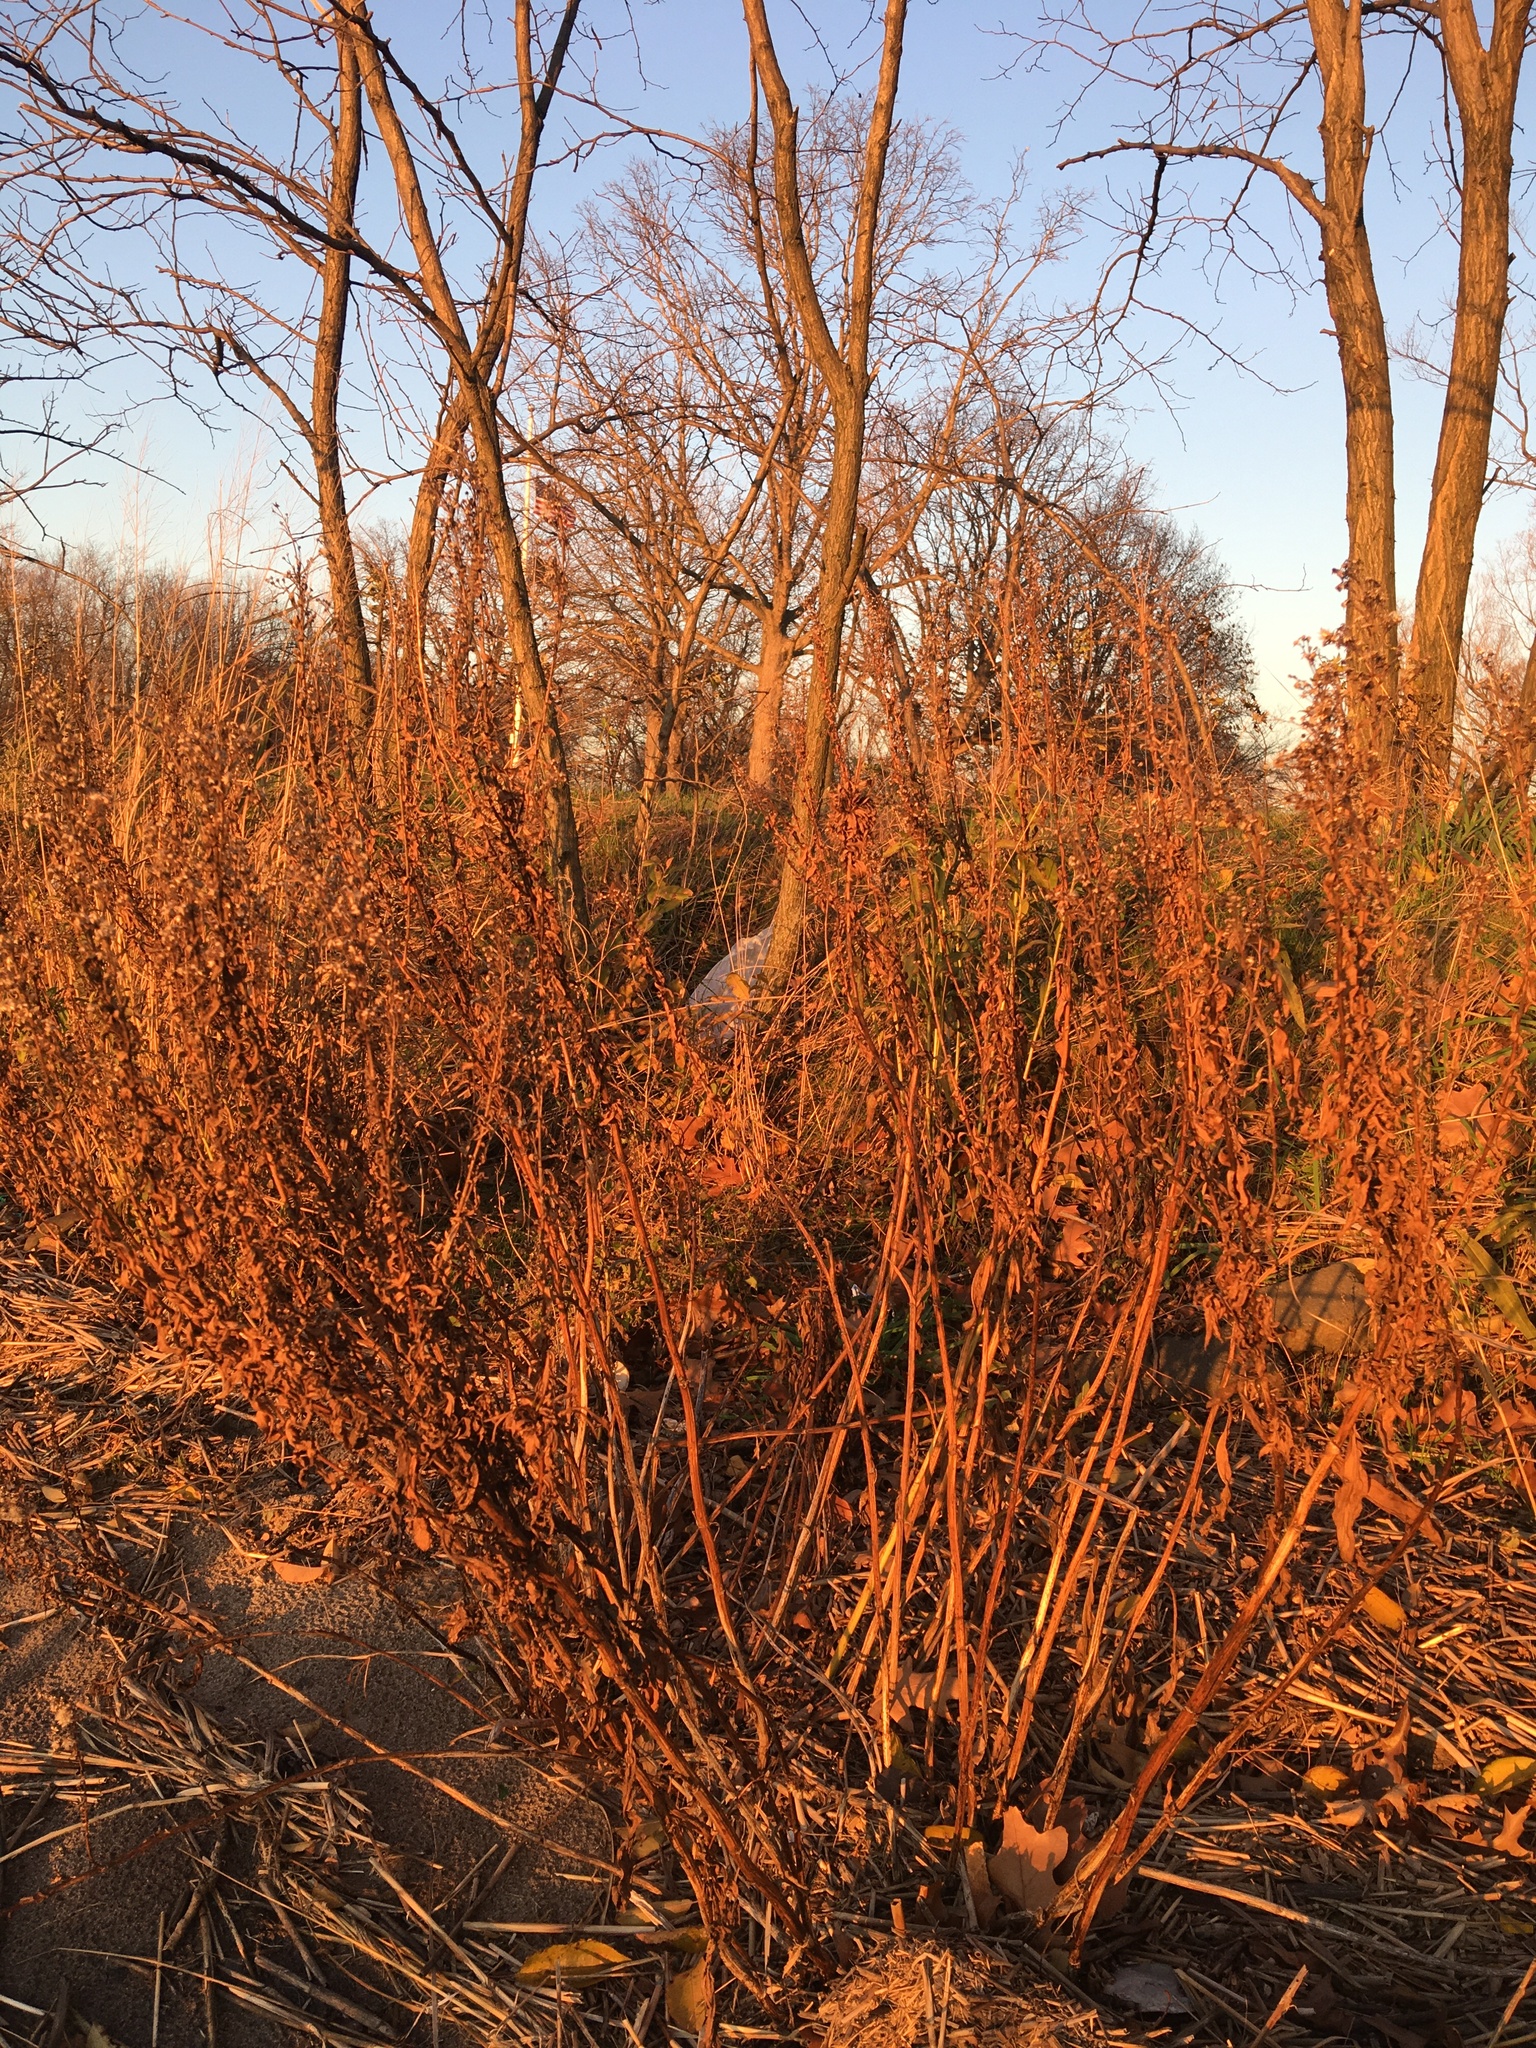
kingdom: Plantae
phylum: Tracheophyta
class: Magnoliopsida
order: Asterales
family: Asteraceae
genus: Solidago
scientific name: Solidago sempervirens
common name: Salt-marsh goldenrod
